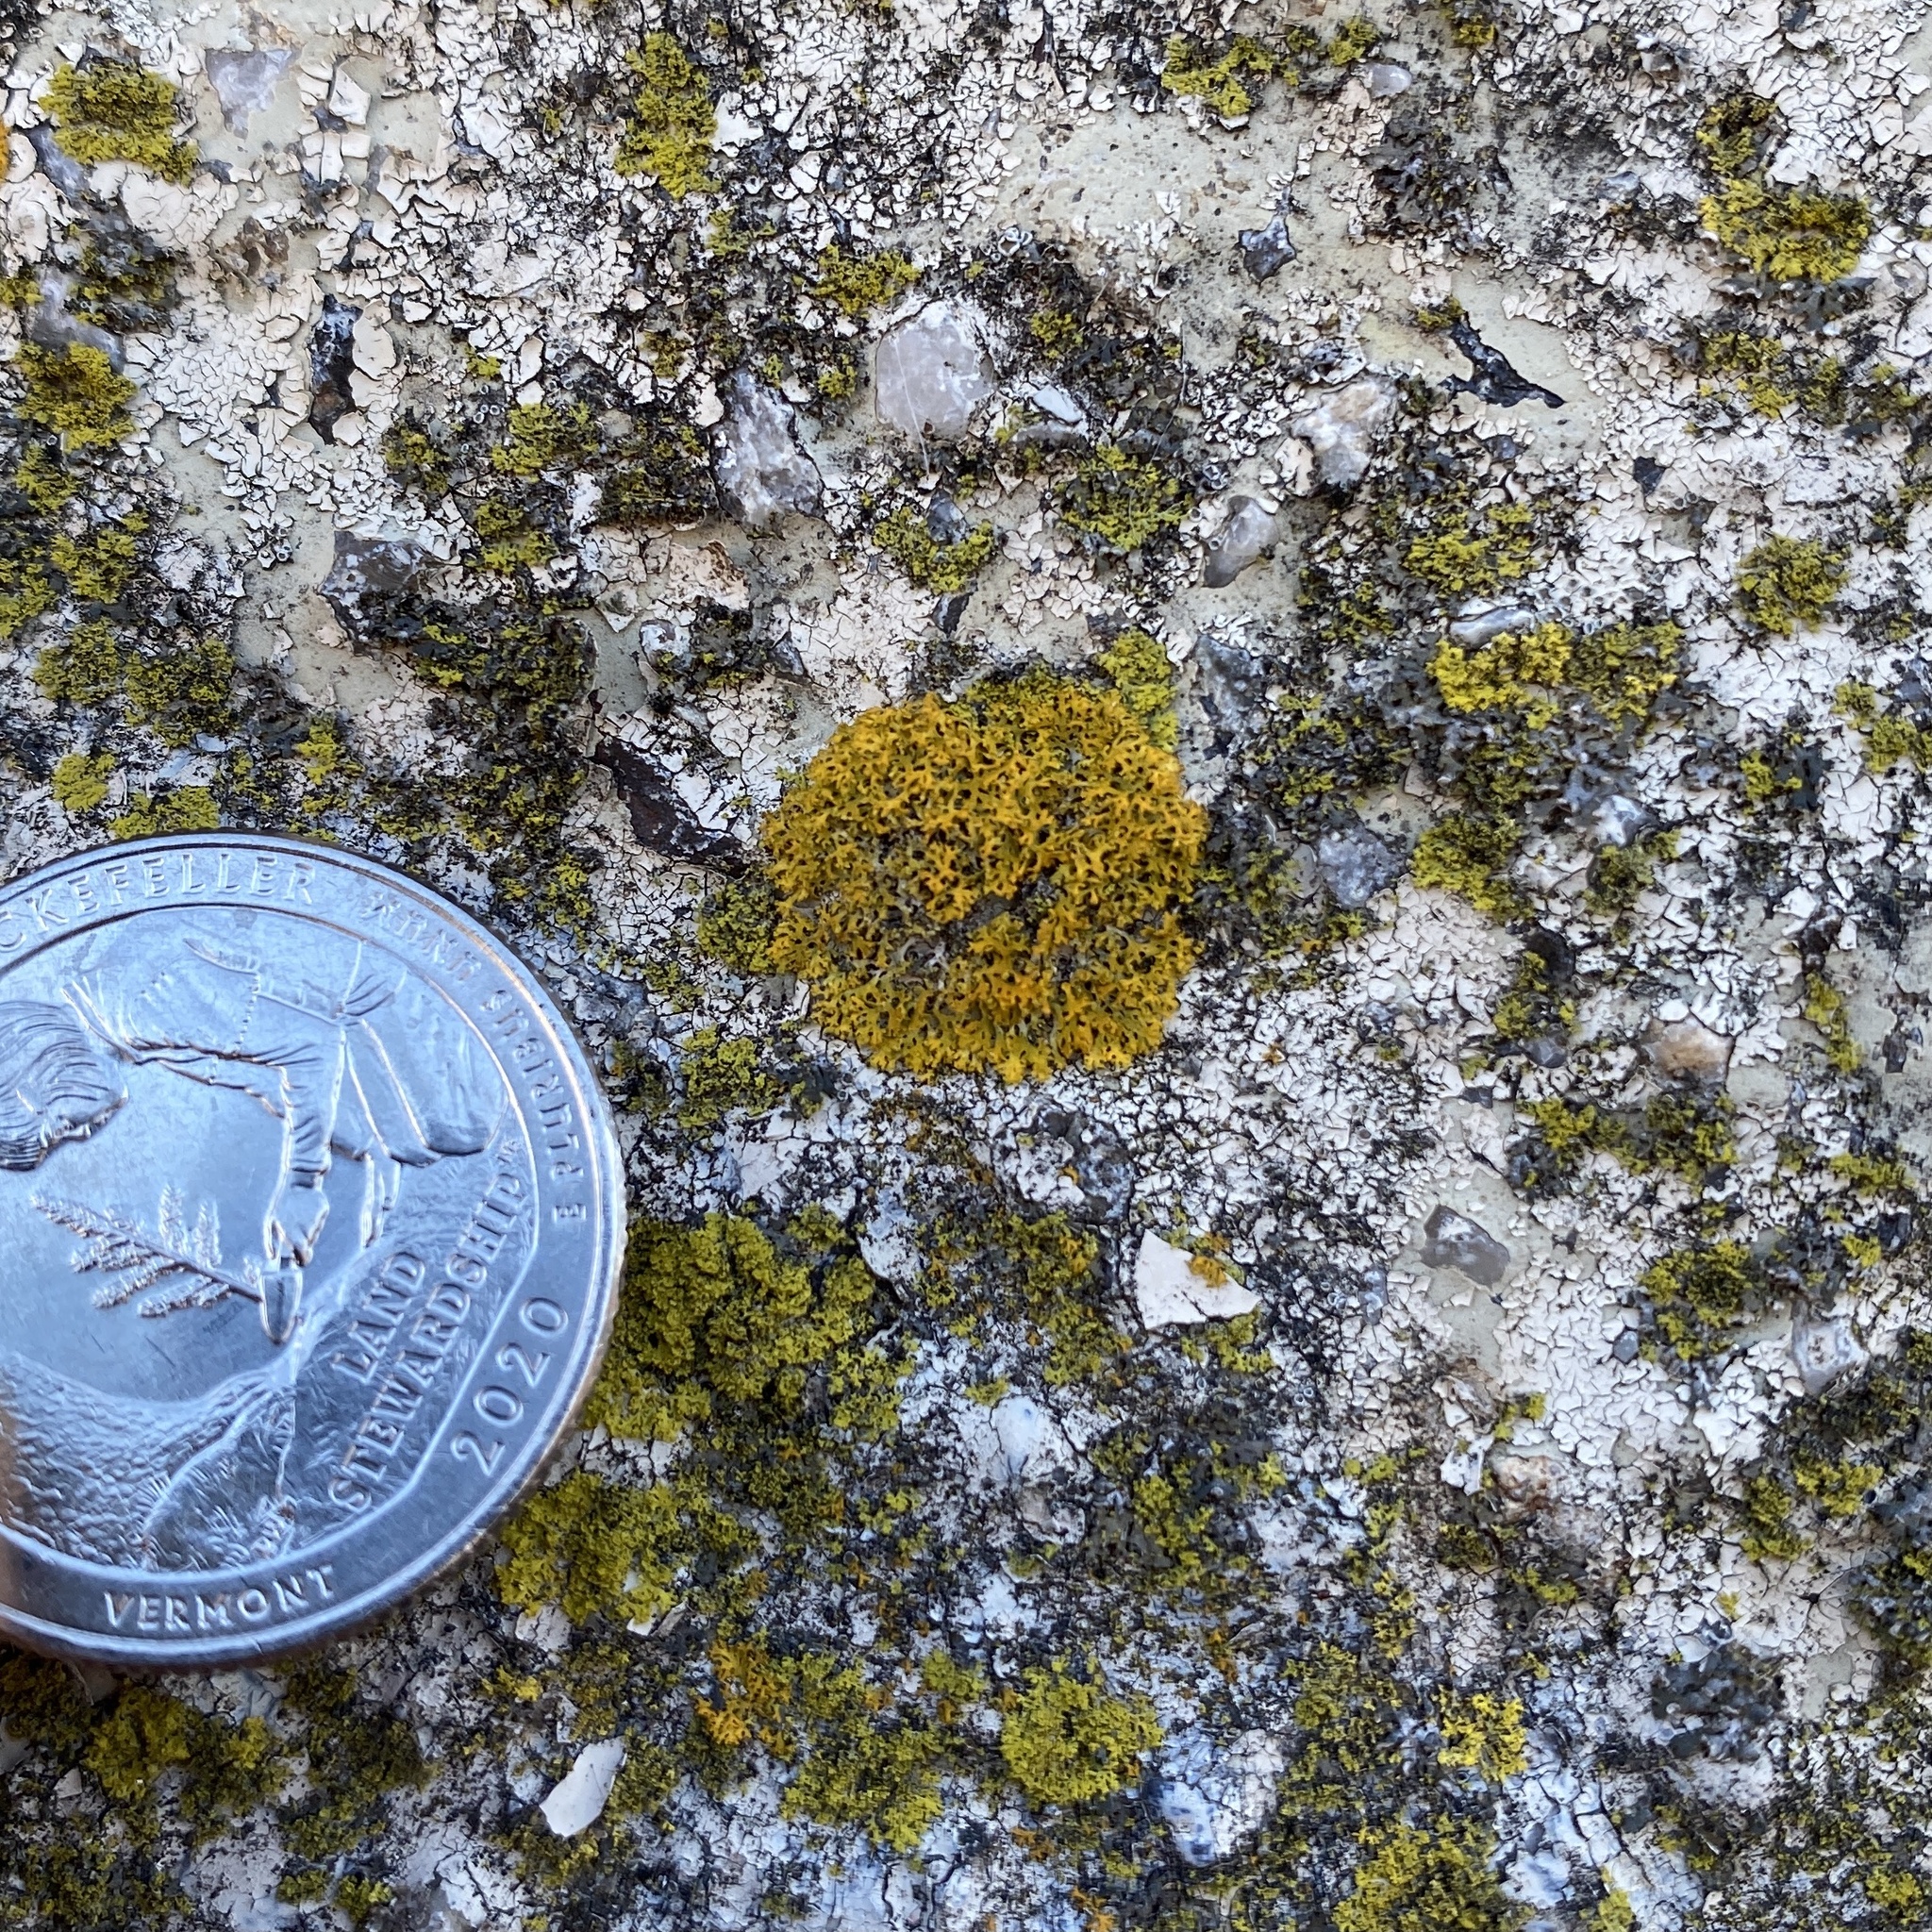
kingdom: Fungi
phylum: Ascomycota
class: Lecanoromycetes
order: Teloschistales
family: Teloschistaceae
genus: Gallowayella
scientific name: Gallowayella weberi
